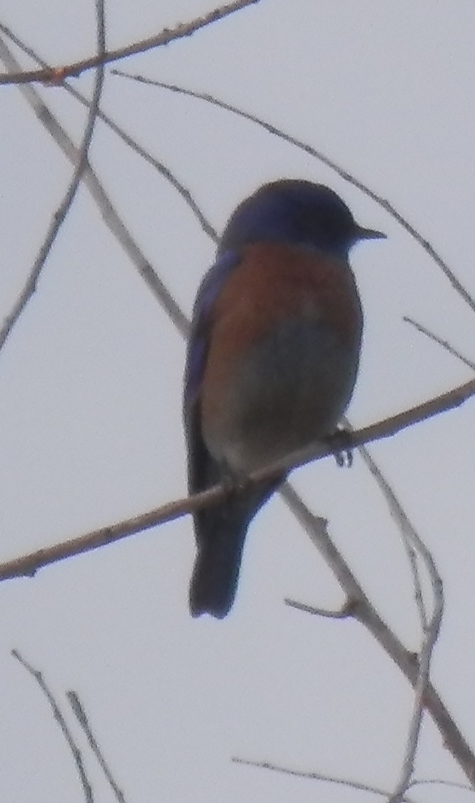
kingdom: Animalia
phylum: Chordata
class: Aves
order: Passeriformes
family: Turdidae
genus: Sialia
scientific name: Sialia mexicana
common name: Western bluebird
